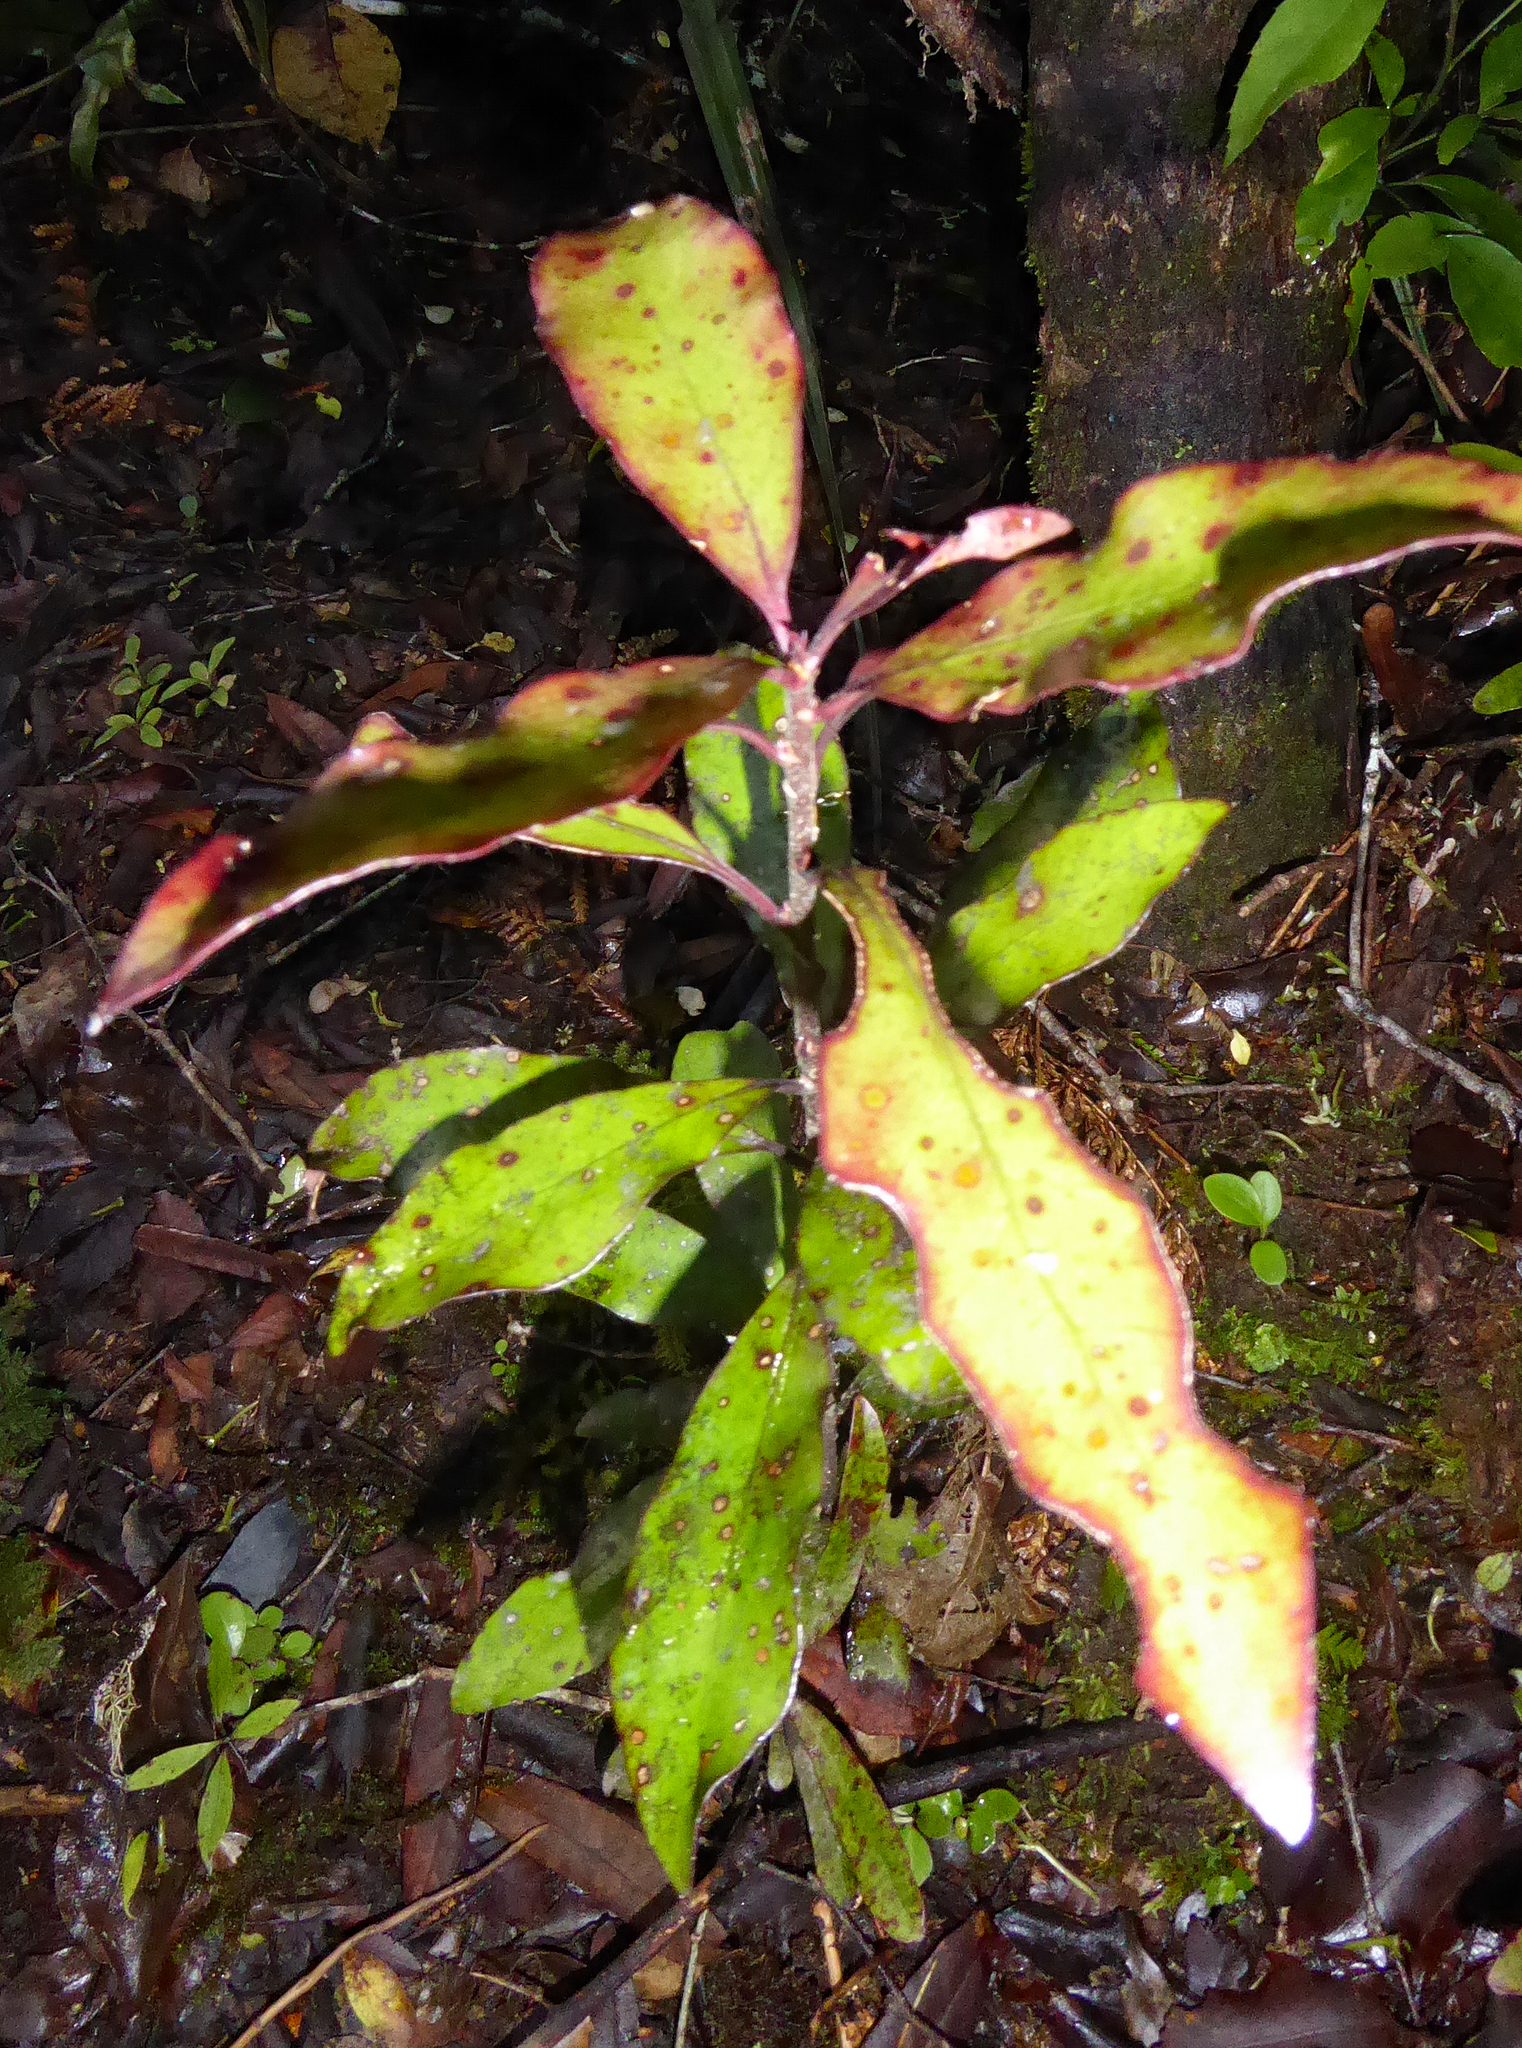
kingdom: Plantae
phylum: Tracheophyta
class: Magnoliopsida
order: Asterales
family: Alseuosmiaceae
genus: Alseuosmia
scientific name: Alseuosmia pusilla
